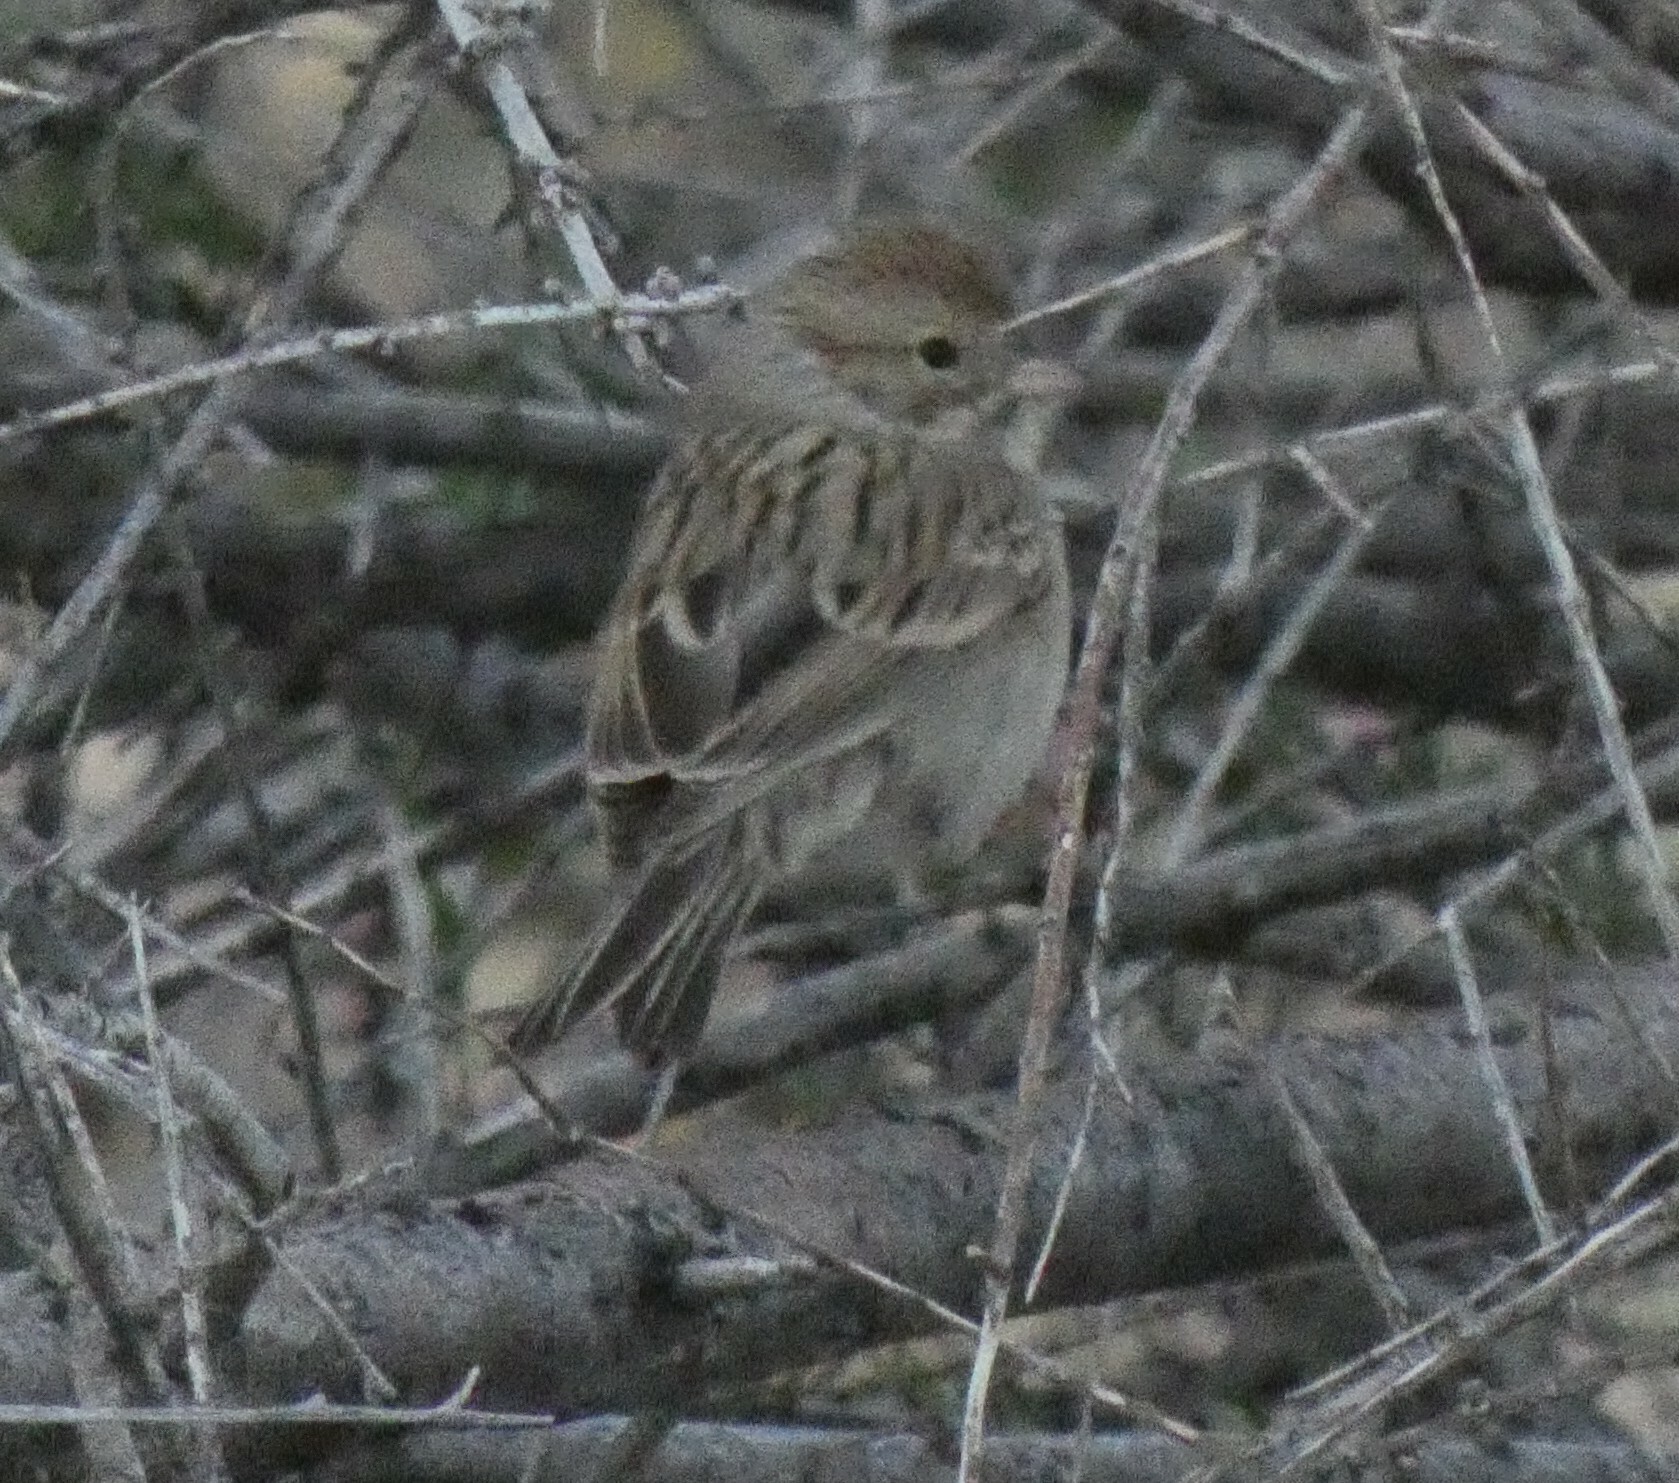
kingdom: Animalia
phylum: Chordata
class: Aves
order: Passeriformes
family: Passerellidae
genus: Spizella
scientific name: Spizella breweri
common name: Brewer's sparrow
